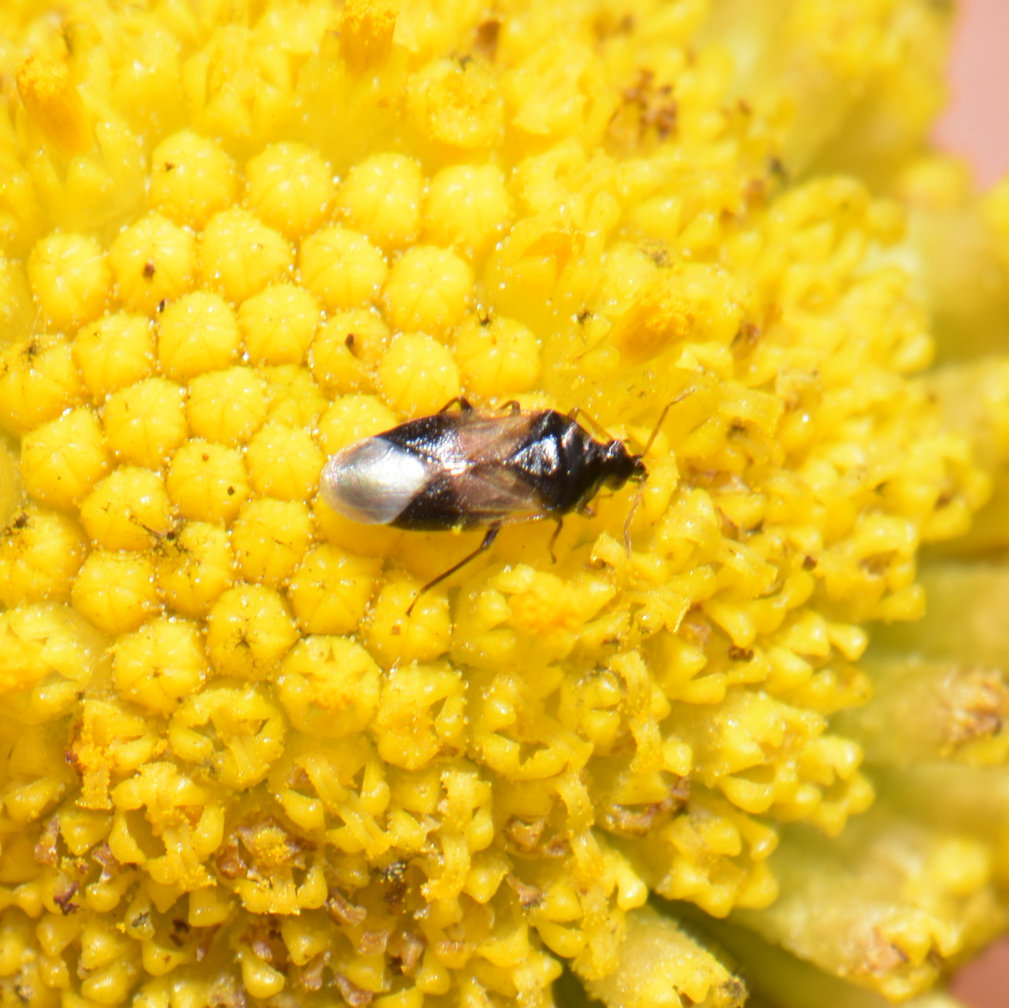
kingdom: Animalia
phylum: Arthropoda
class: Insecta
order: Hemiptera
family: Anthocoridae
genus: Orius
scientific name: Orius insidiosus
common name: Insidious flower bug
